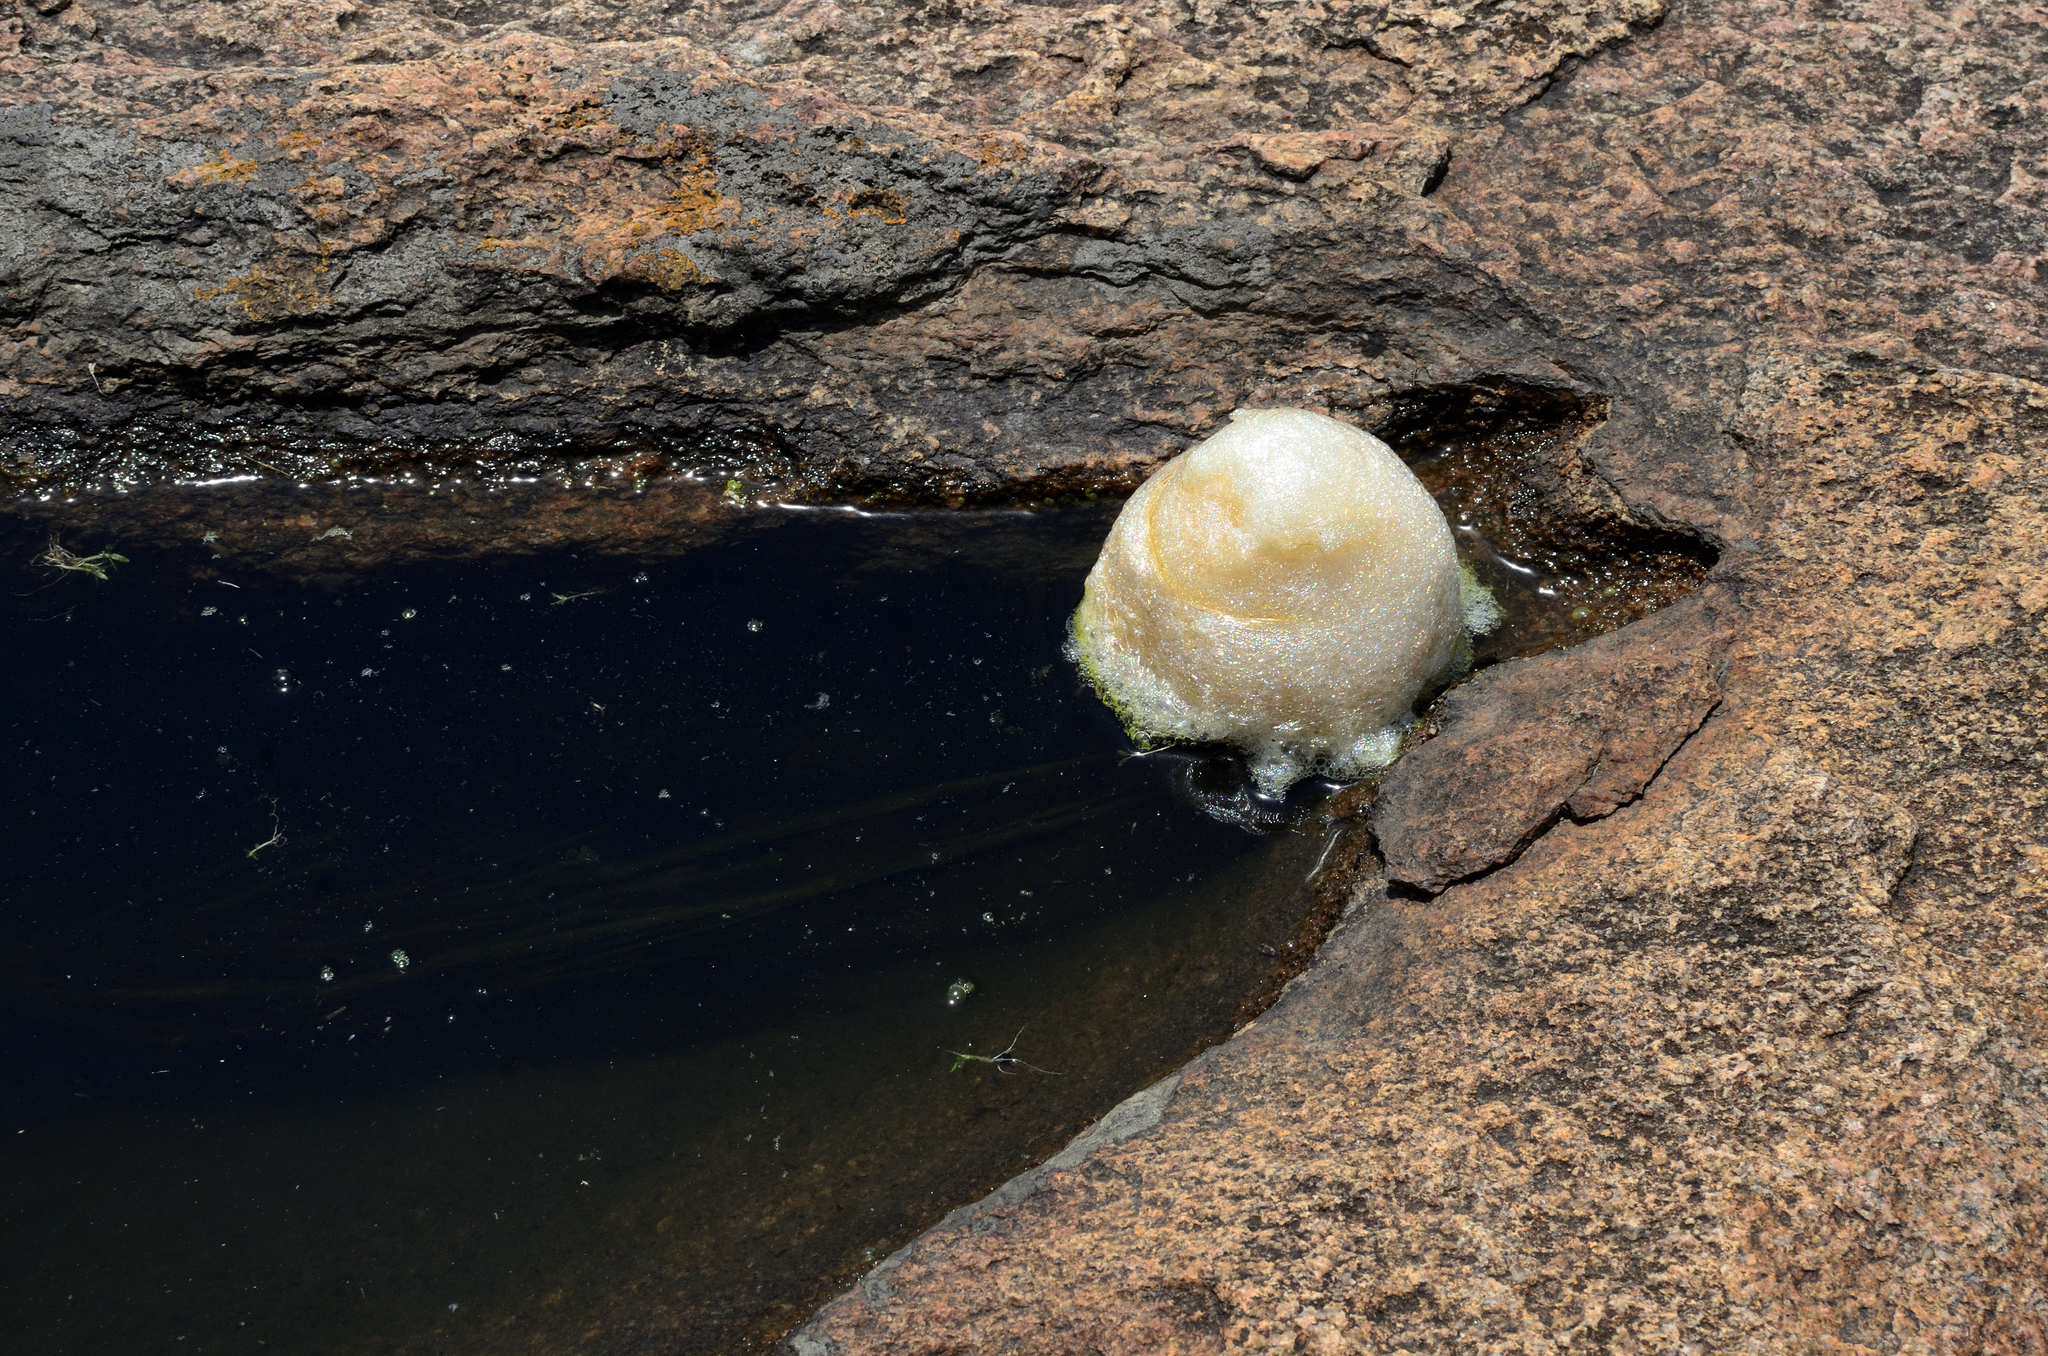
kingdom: Animalia
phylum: Chordata
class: Amphibia
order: Anura
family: Rhacophoridae
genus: Polypedates
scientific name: Polypedates maculatus
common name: Himalayan tree frog
